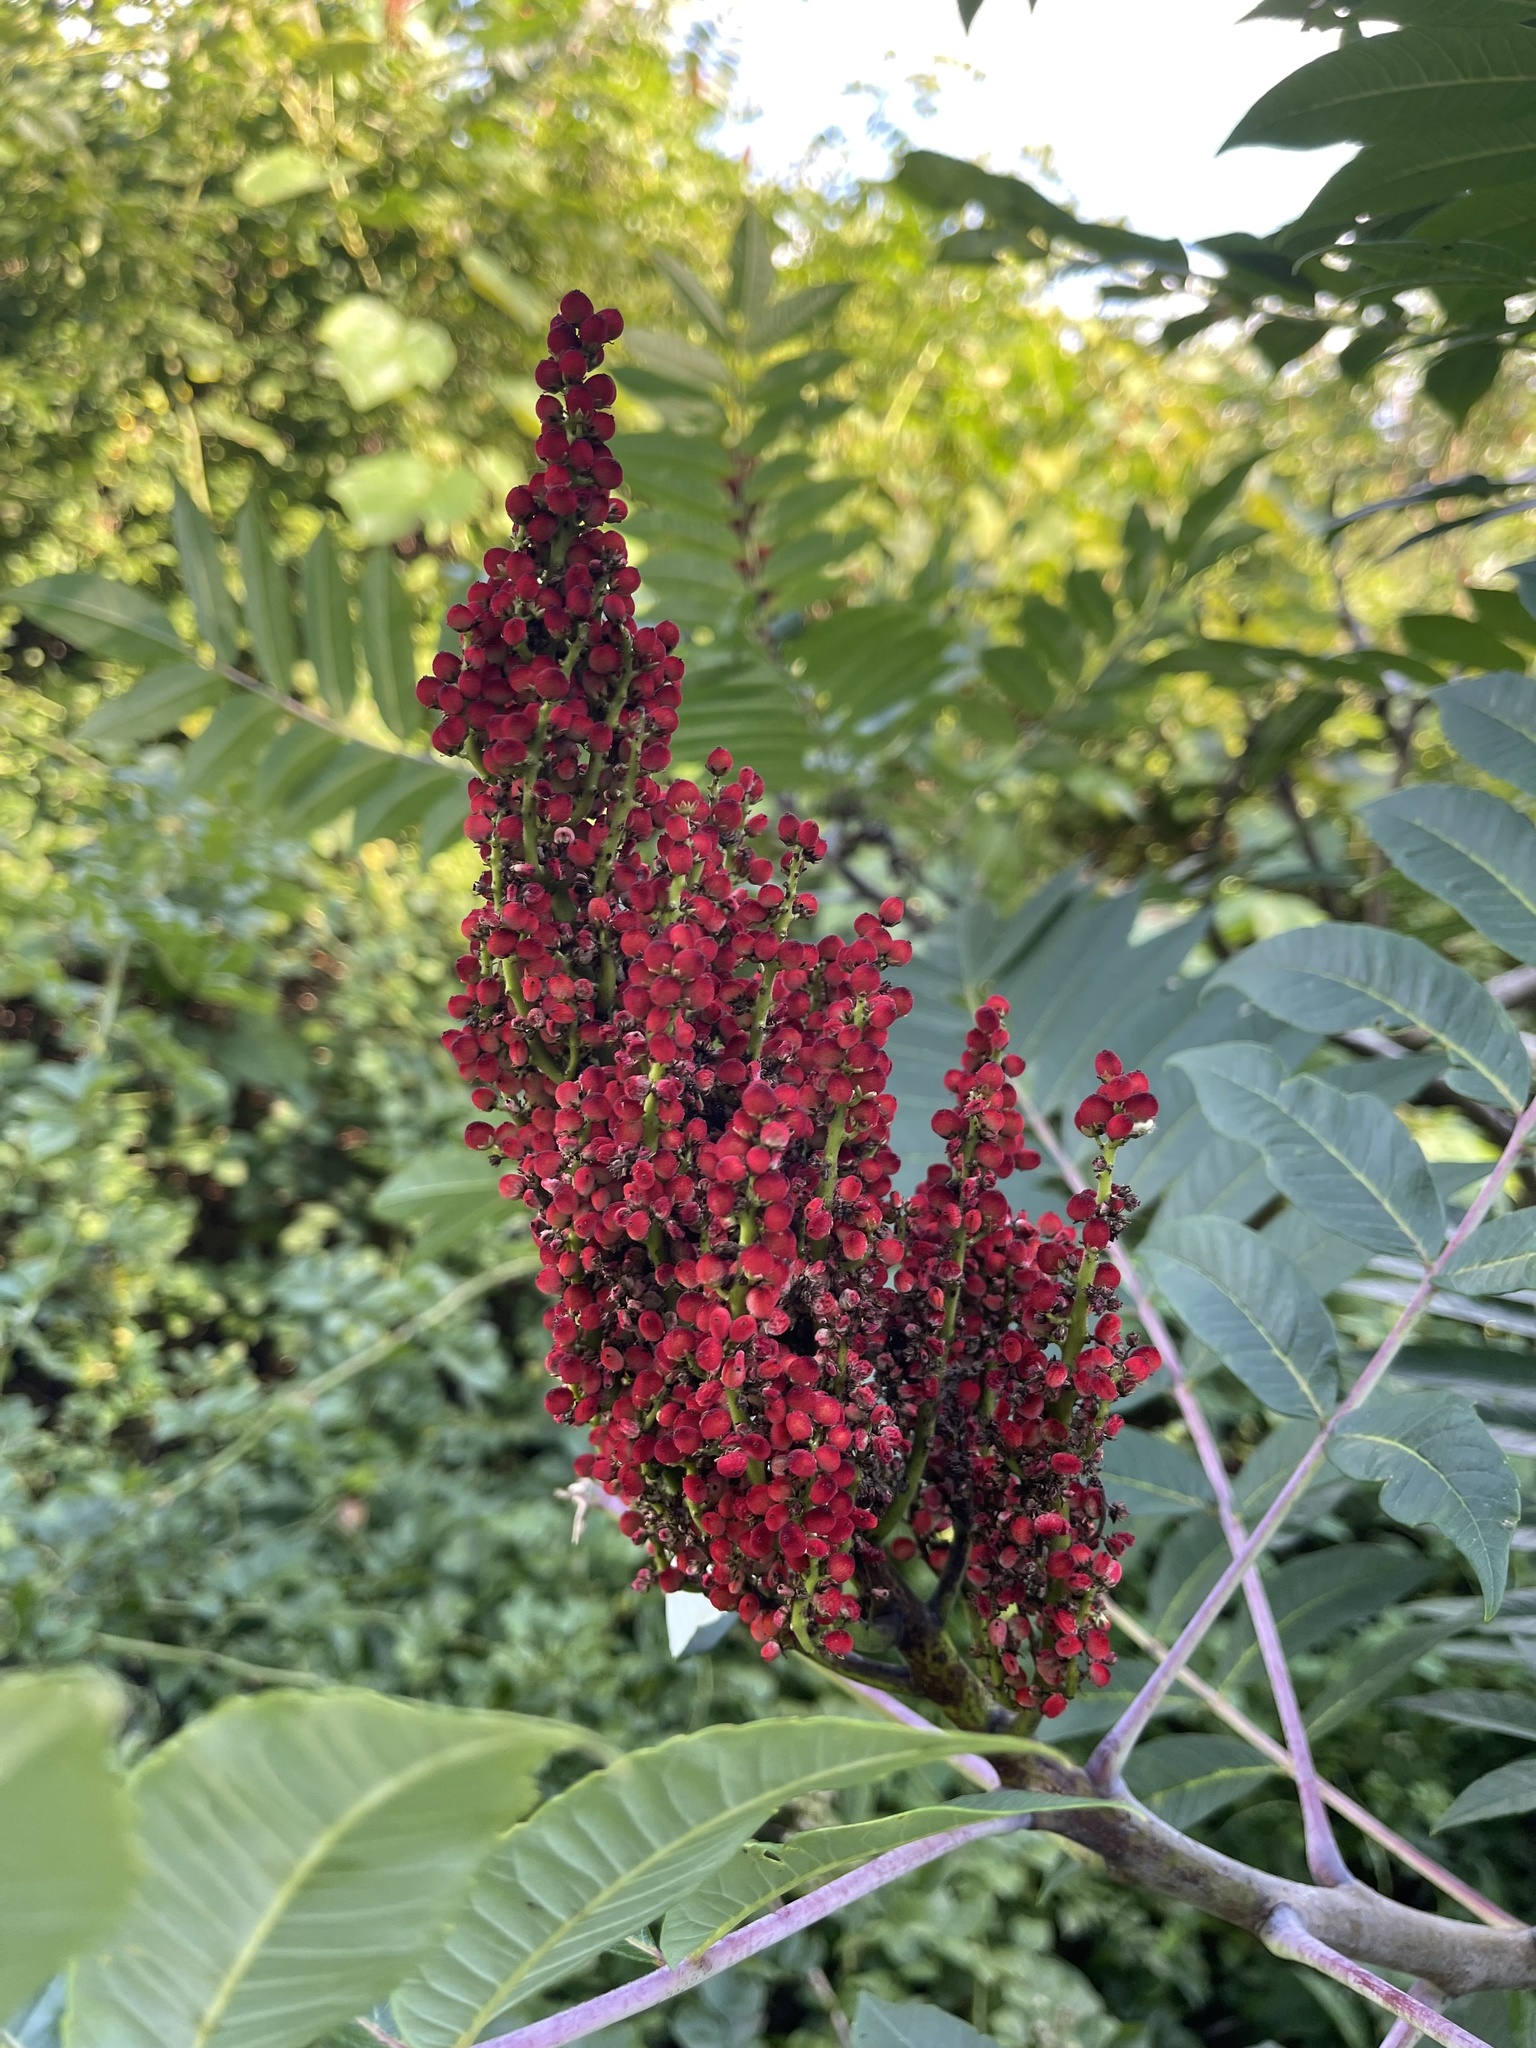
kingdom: Plantae
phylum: Tracheophyta
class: Magnoliopsida
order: Sapindales
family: Anacardiaceae
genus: Rhus
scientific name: Rhus glabra
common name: Scarlet sumac
